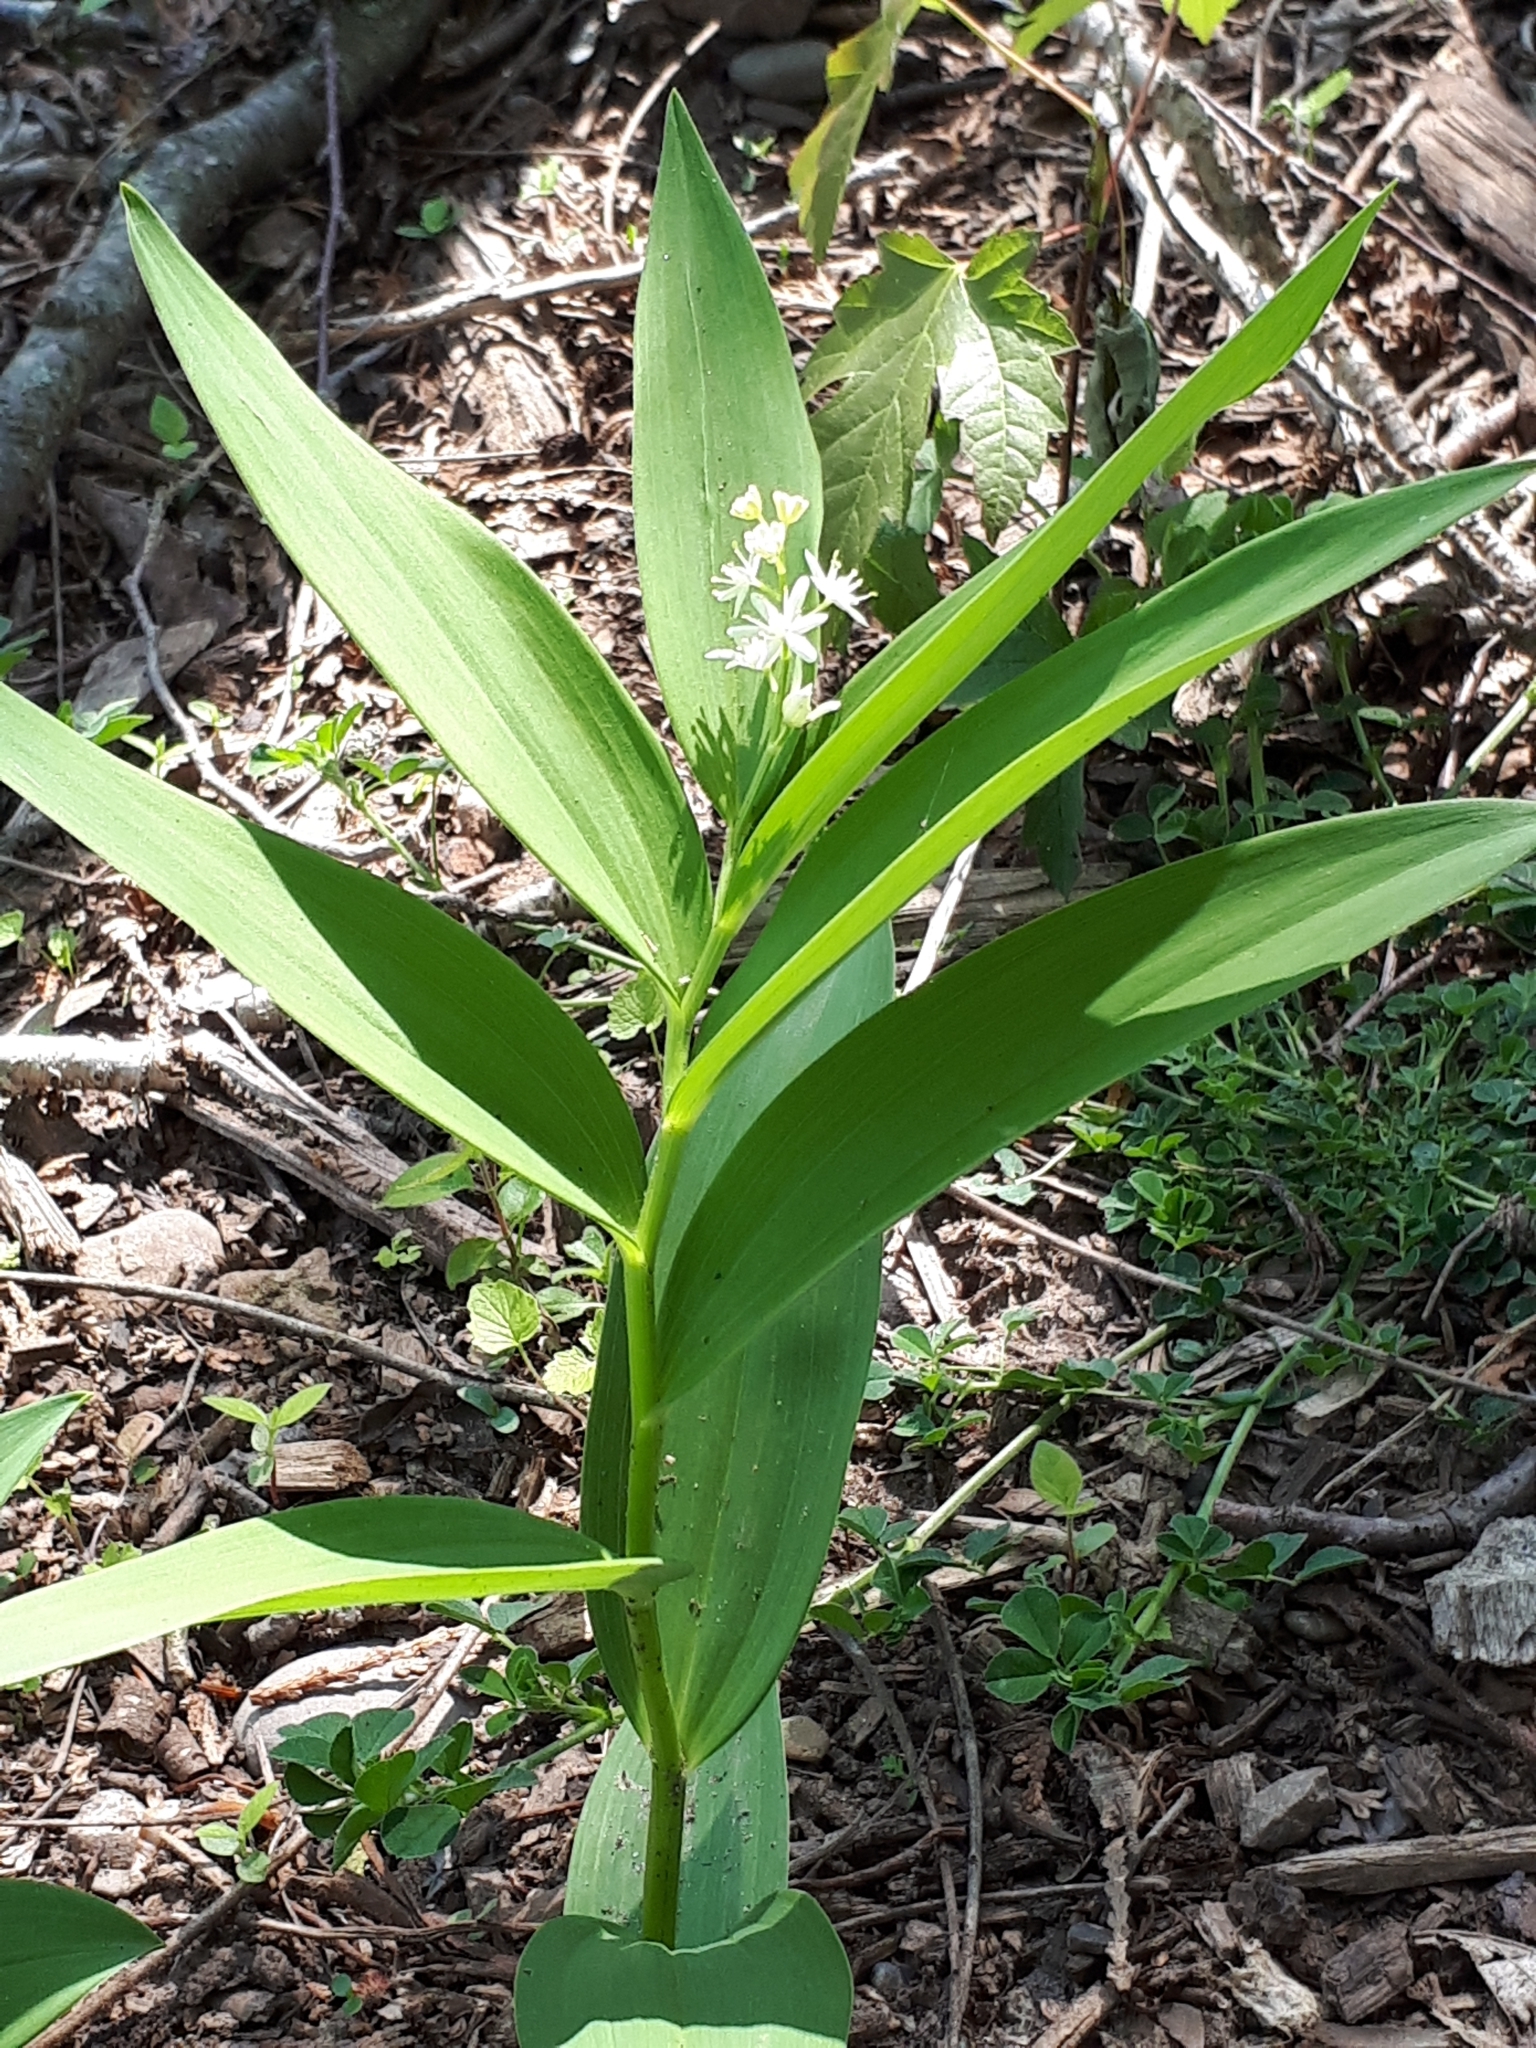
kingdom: Plantae
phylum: Tracheophyta
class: Liliopsida
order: Asparagales
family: Asparagaceae
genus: Maianthemum
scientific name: Maianthemum stellatum
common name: Little false solomon's seal
